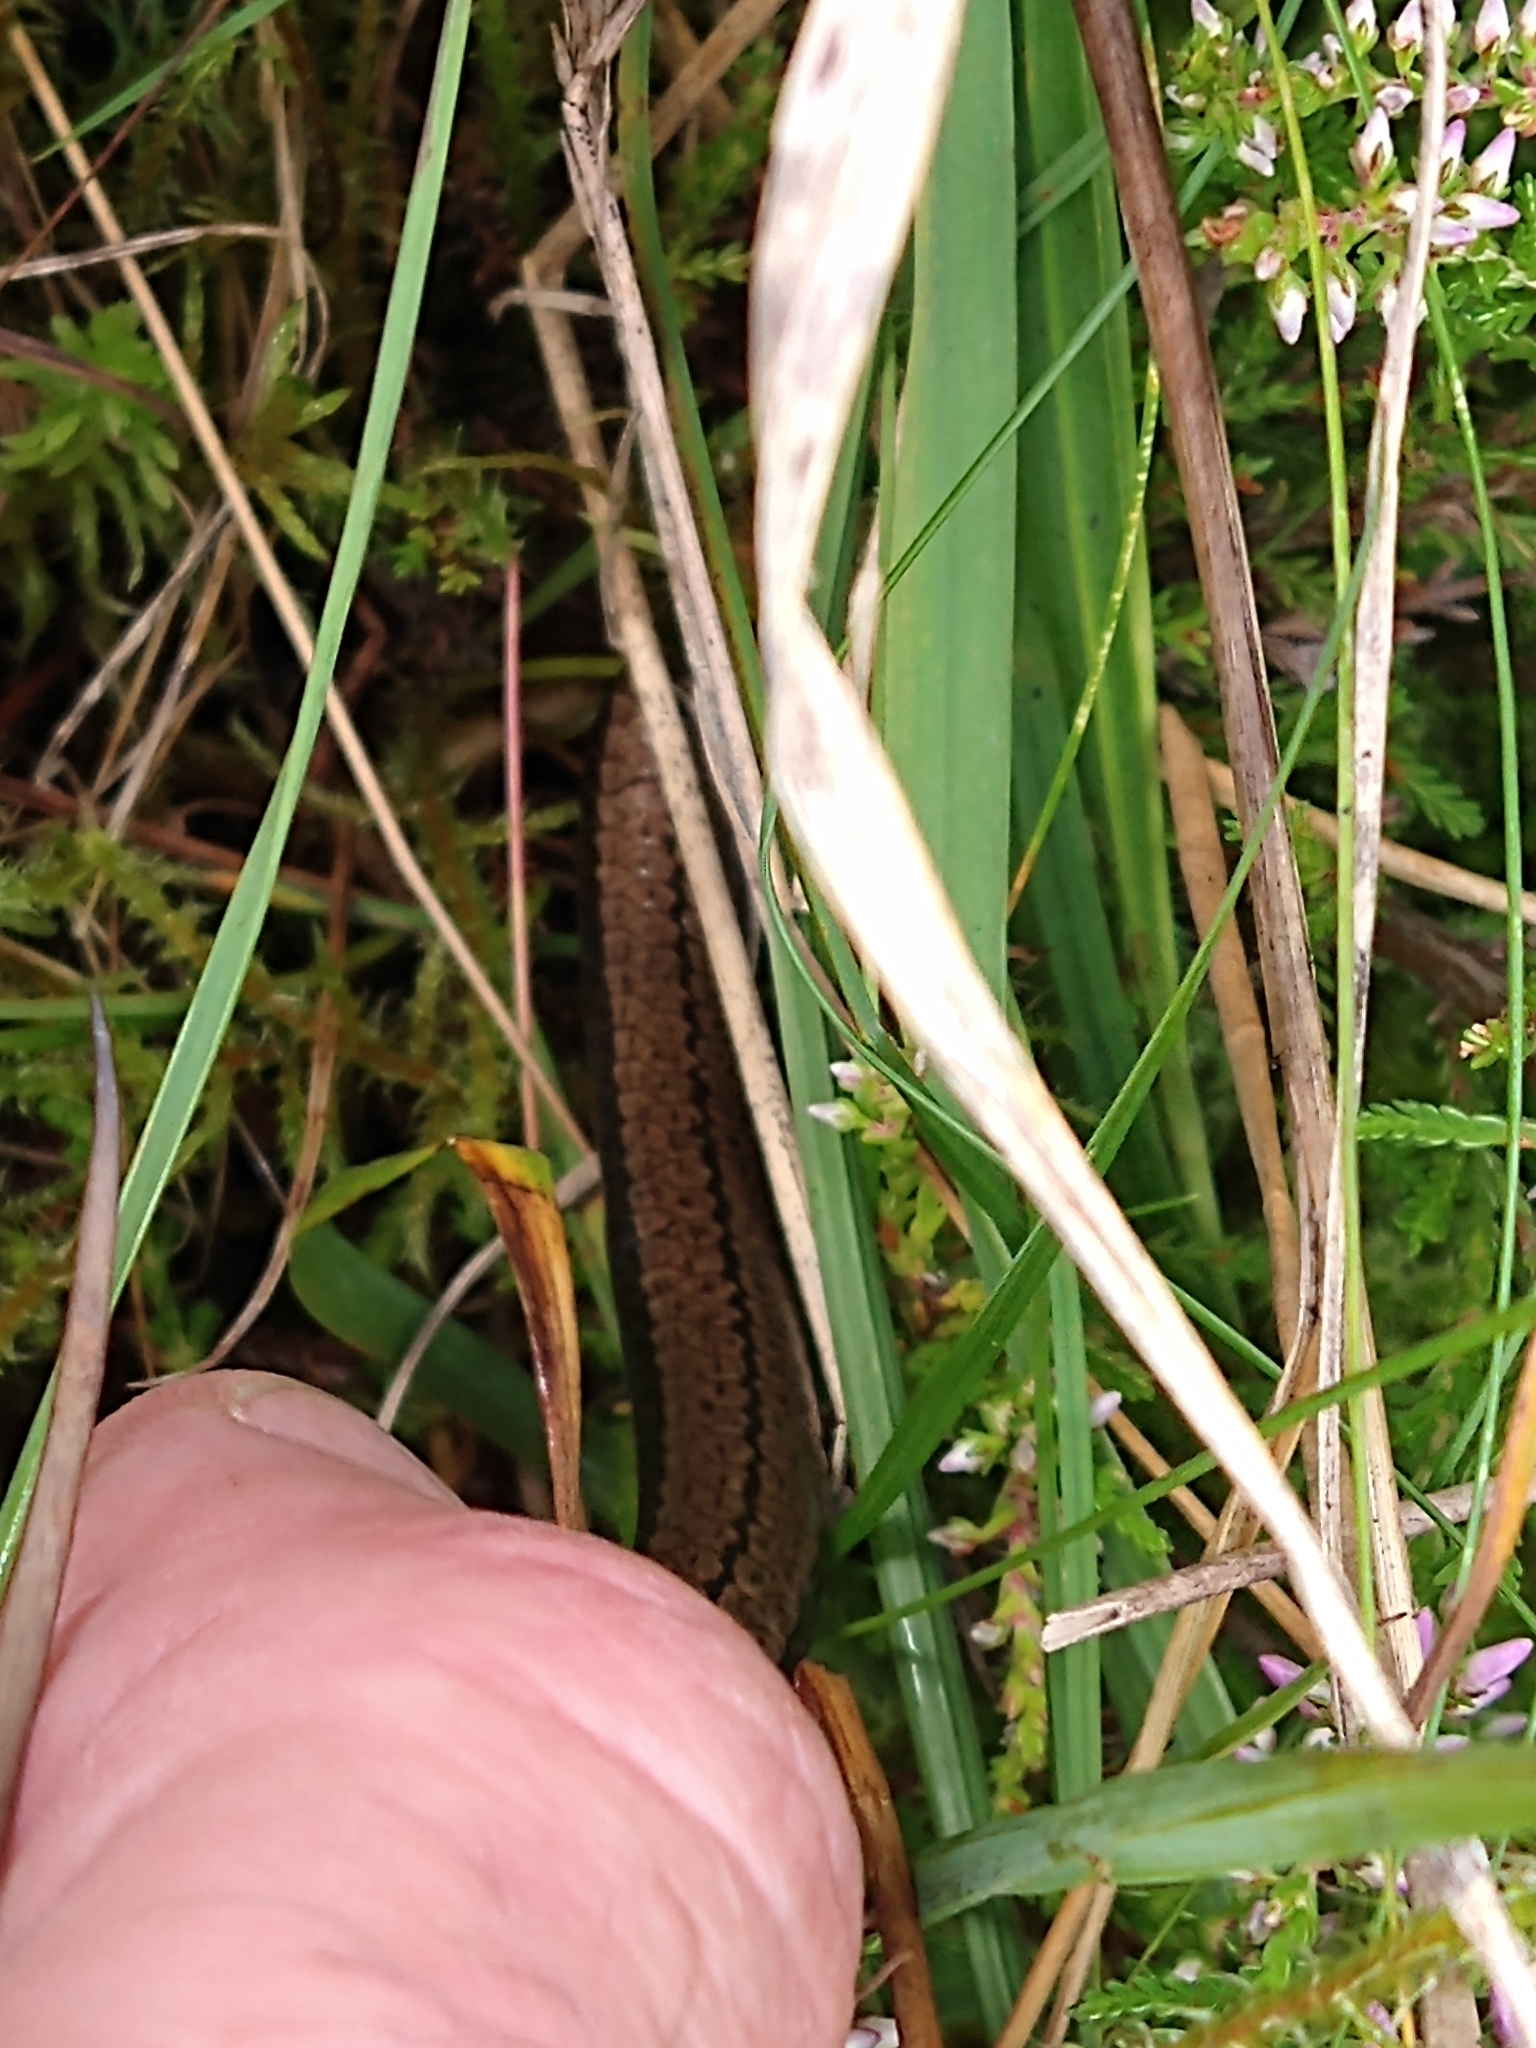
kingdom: Animalia
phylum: Chordata
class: Squamata
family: Anguidae
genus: Anguis
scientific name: Anguis fragilis
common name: Slow worm
